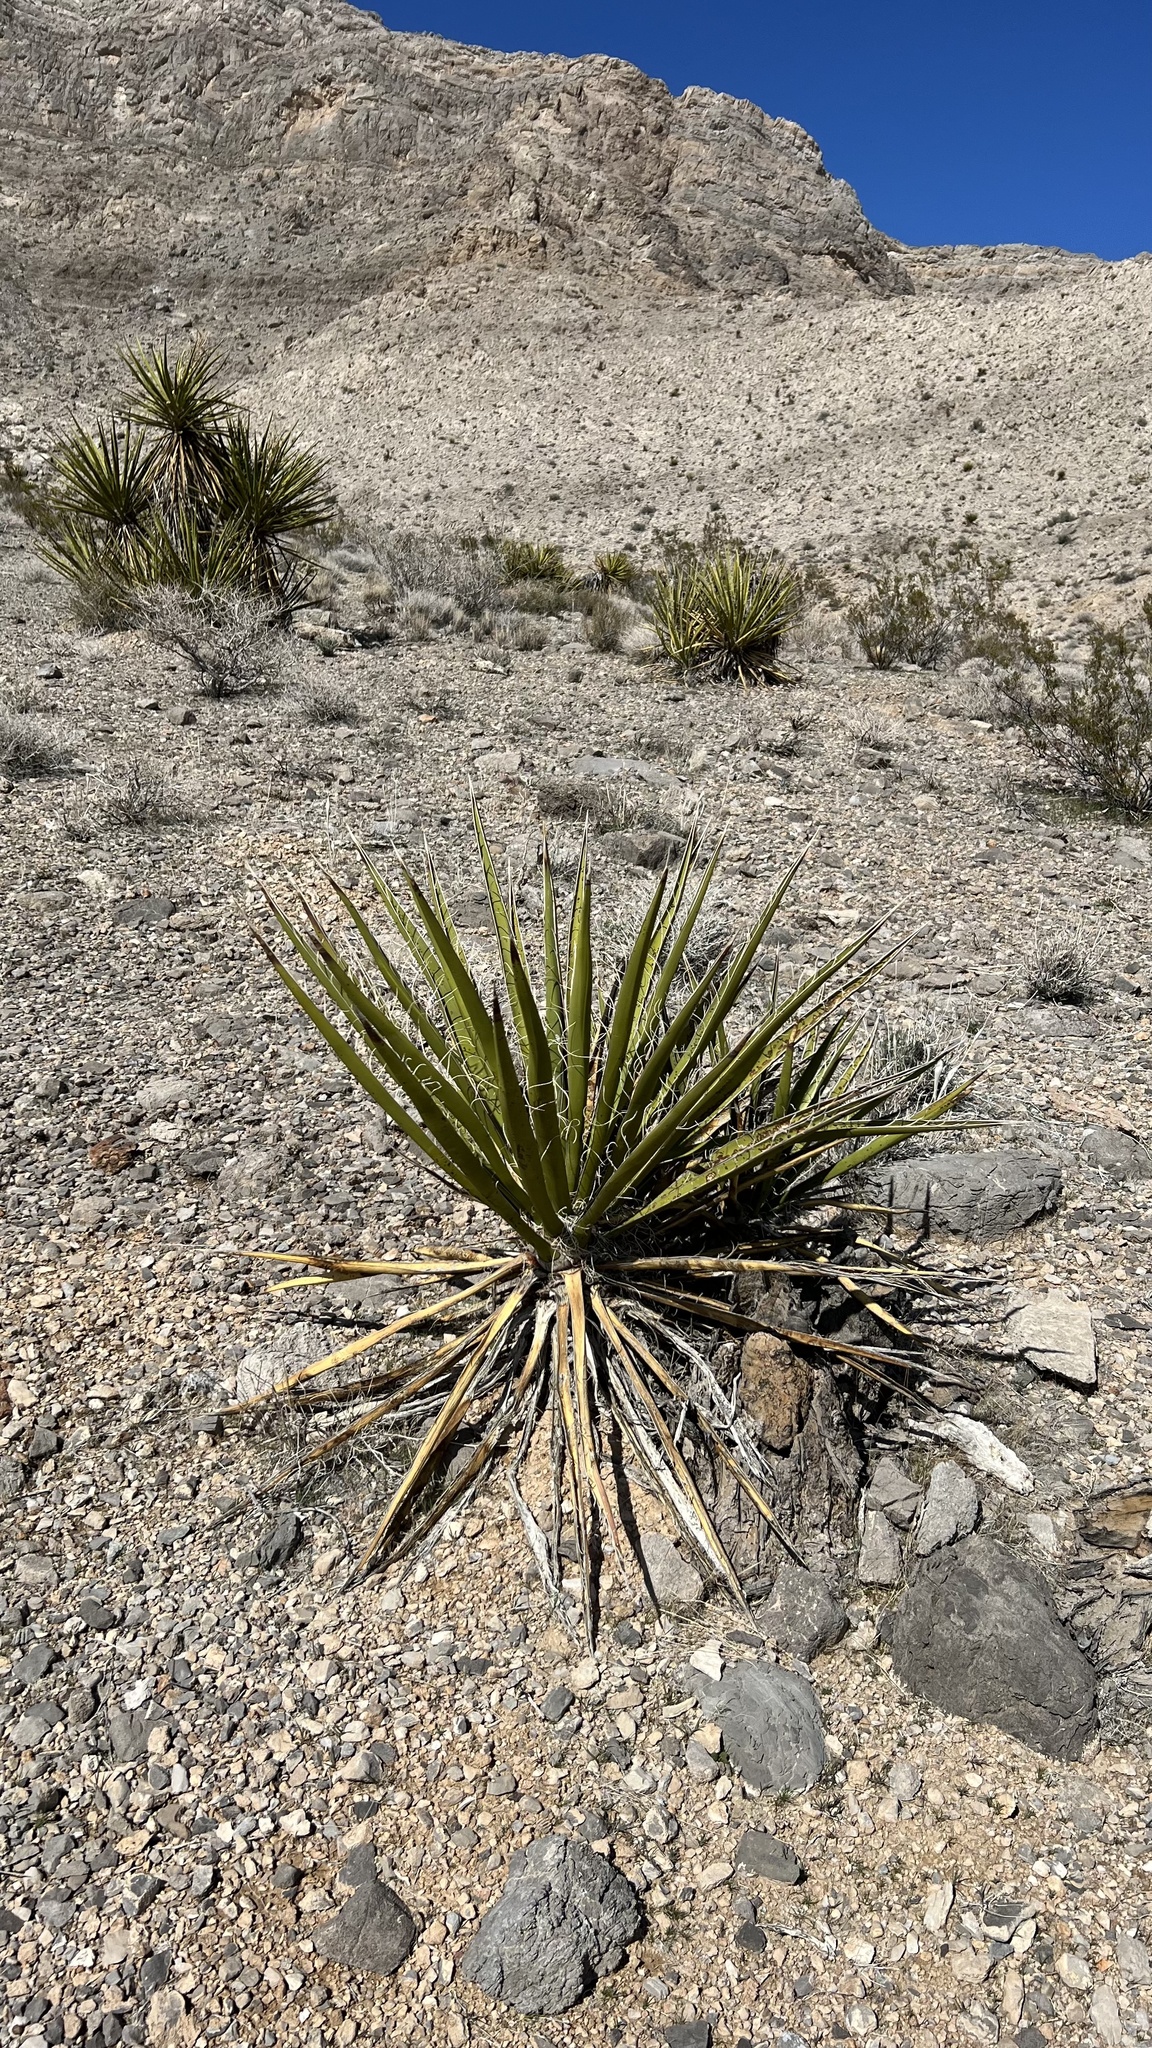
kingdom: Plantae
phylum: Tracheophyta
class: Liliopsida
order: Asparagales
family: Asparagaceae
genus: Yucca
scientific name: Yucca schidigera
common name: Mojave yucca
